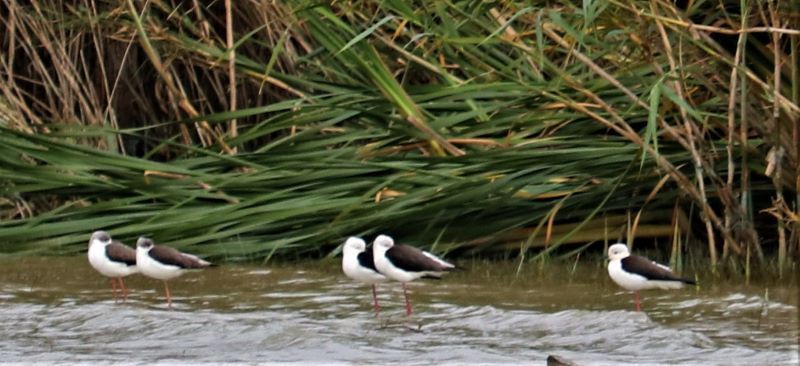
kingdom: Animalia
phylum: Chordata
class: Aves
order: Charadriiformes
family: Recurvirostridae
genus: Himantopus
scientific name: Himantopus himantopus
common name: Black-winged stilt
